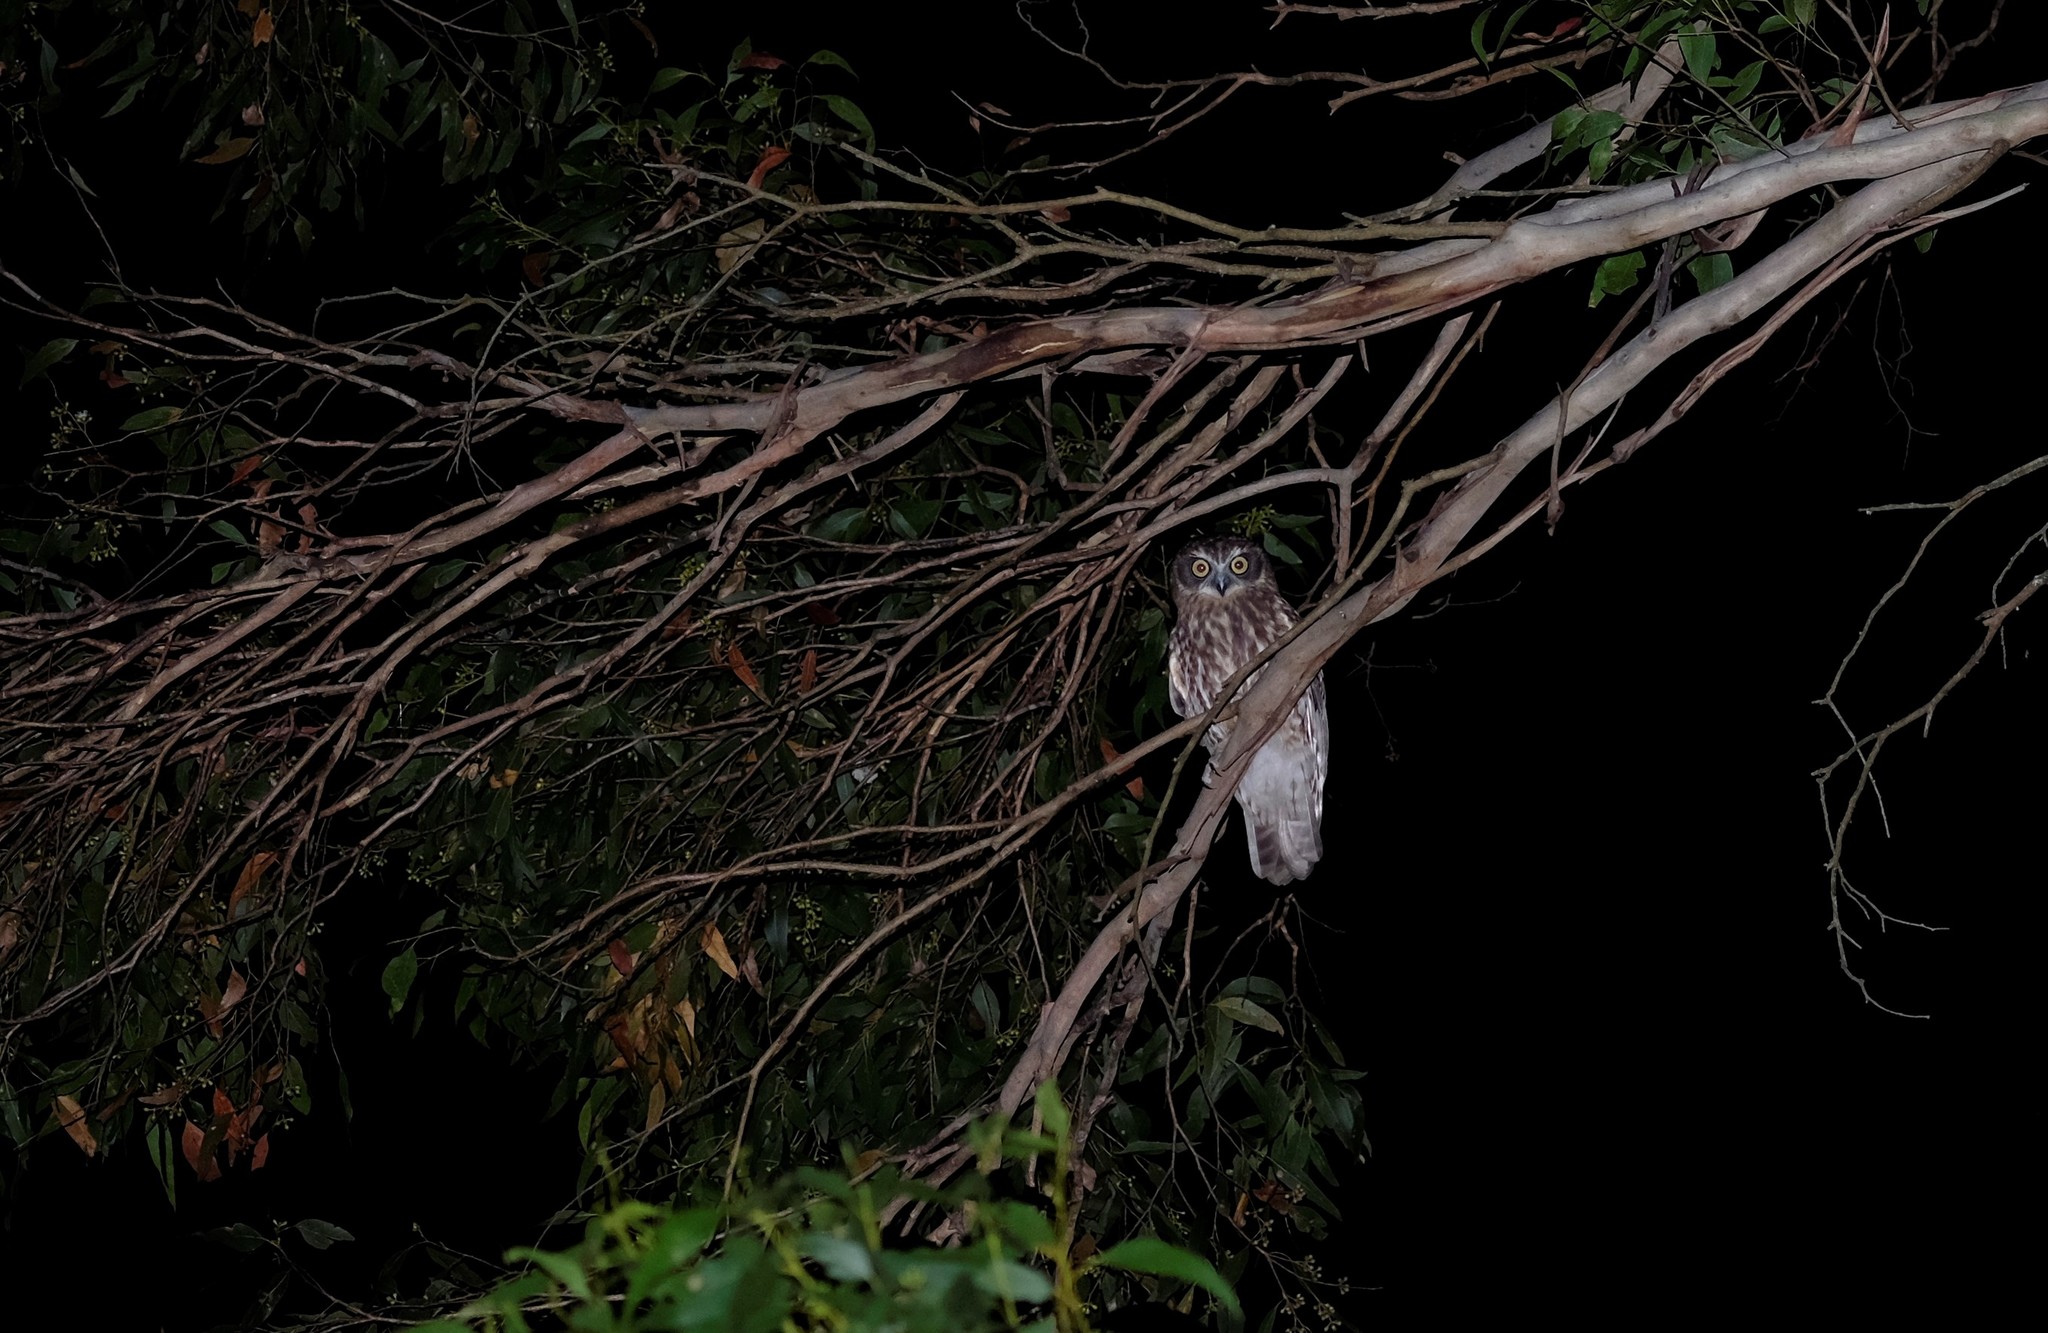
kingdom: Animalia
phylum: Chordata
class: Aves
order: Strigiformes
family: Strigidae
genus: Ninox
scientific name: Ninox boobook
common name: Southern boobook
